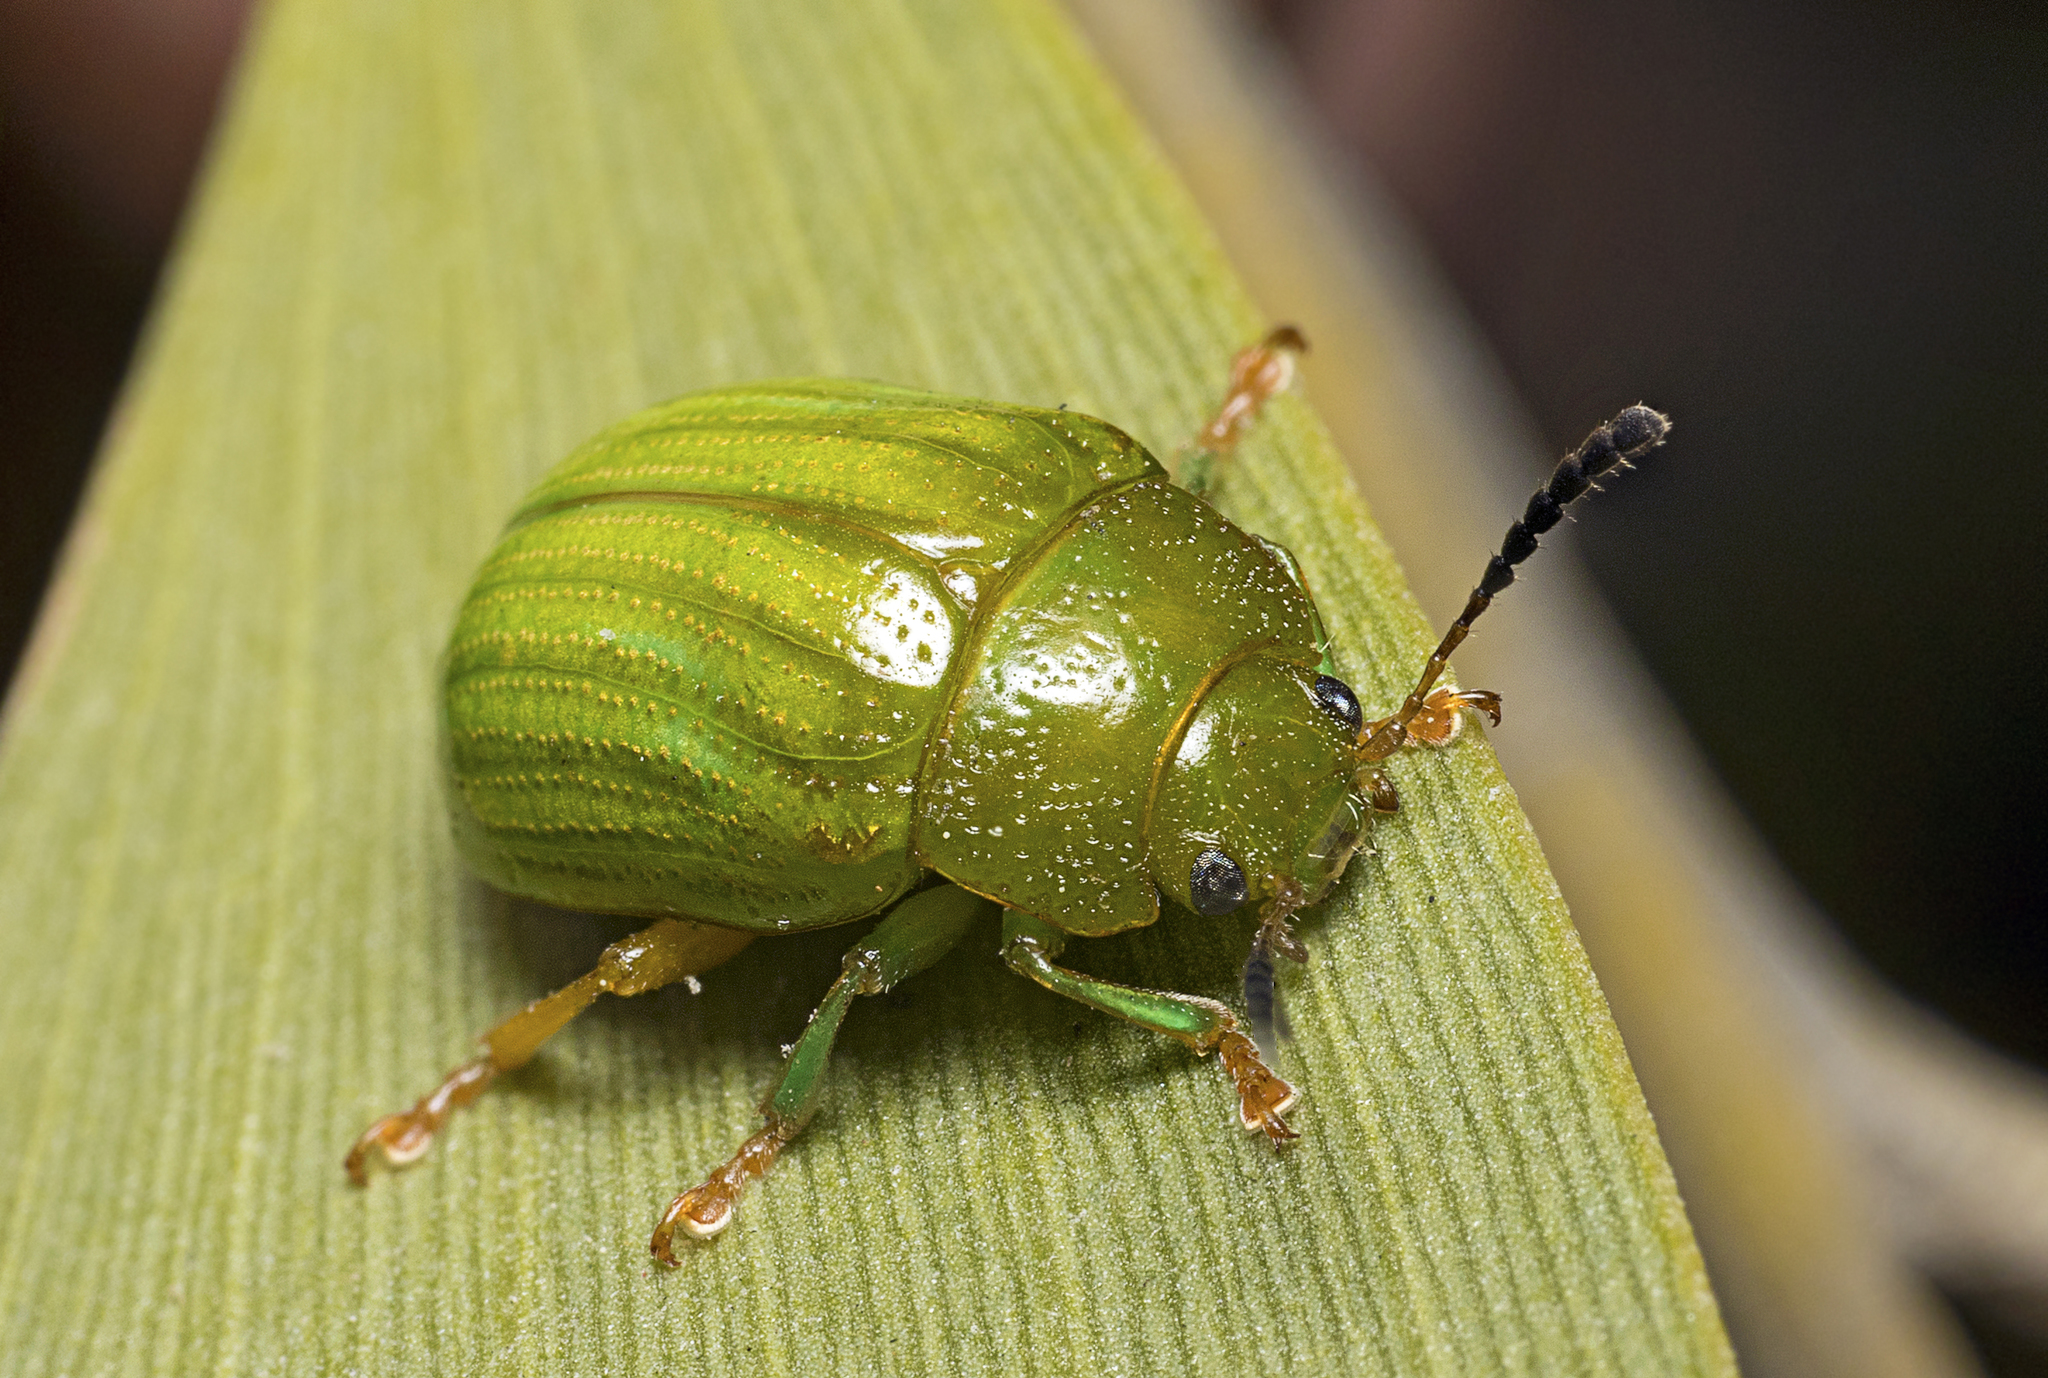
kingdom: Animalia
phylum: Arthropoda
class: Insecta
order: Coleoptera
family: Chrysomelidae
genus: Calomela
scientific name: Calomela
